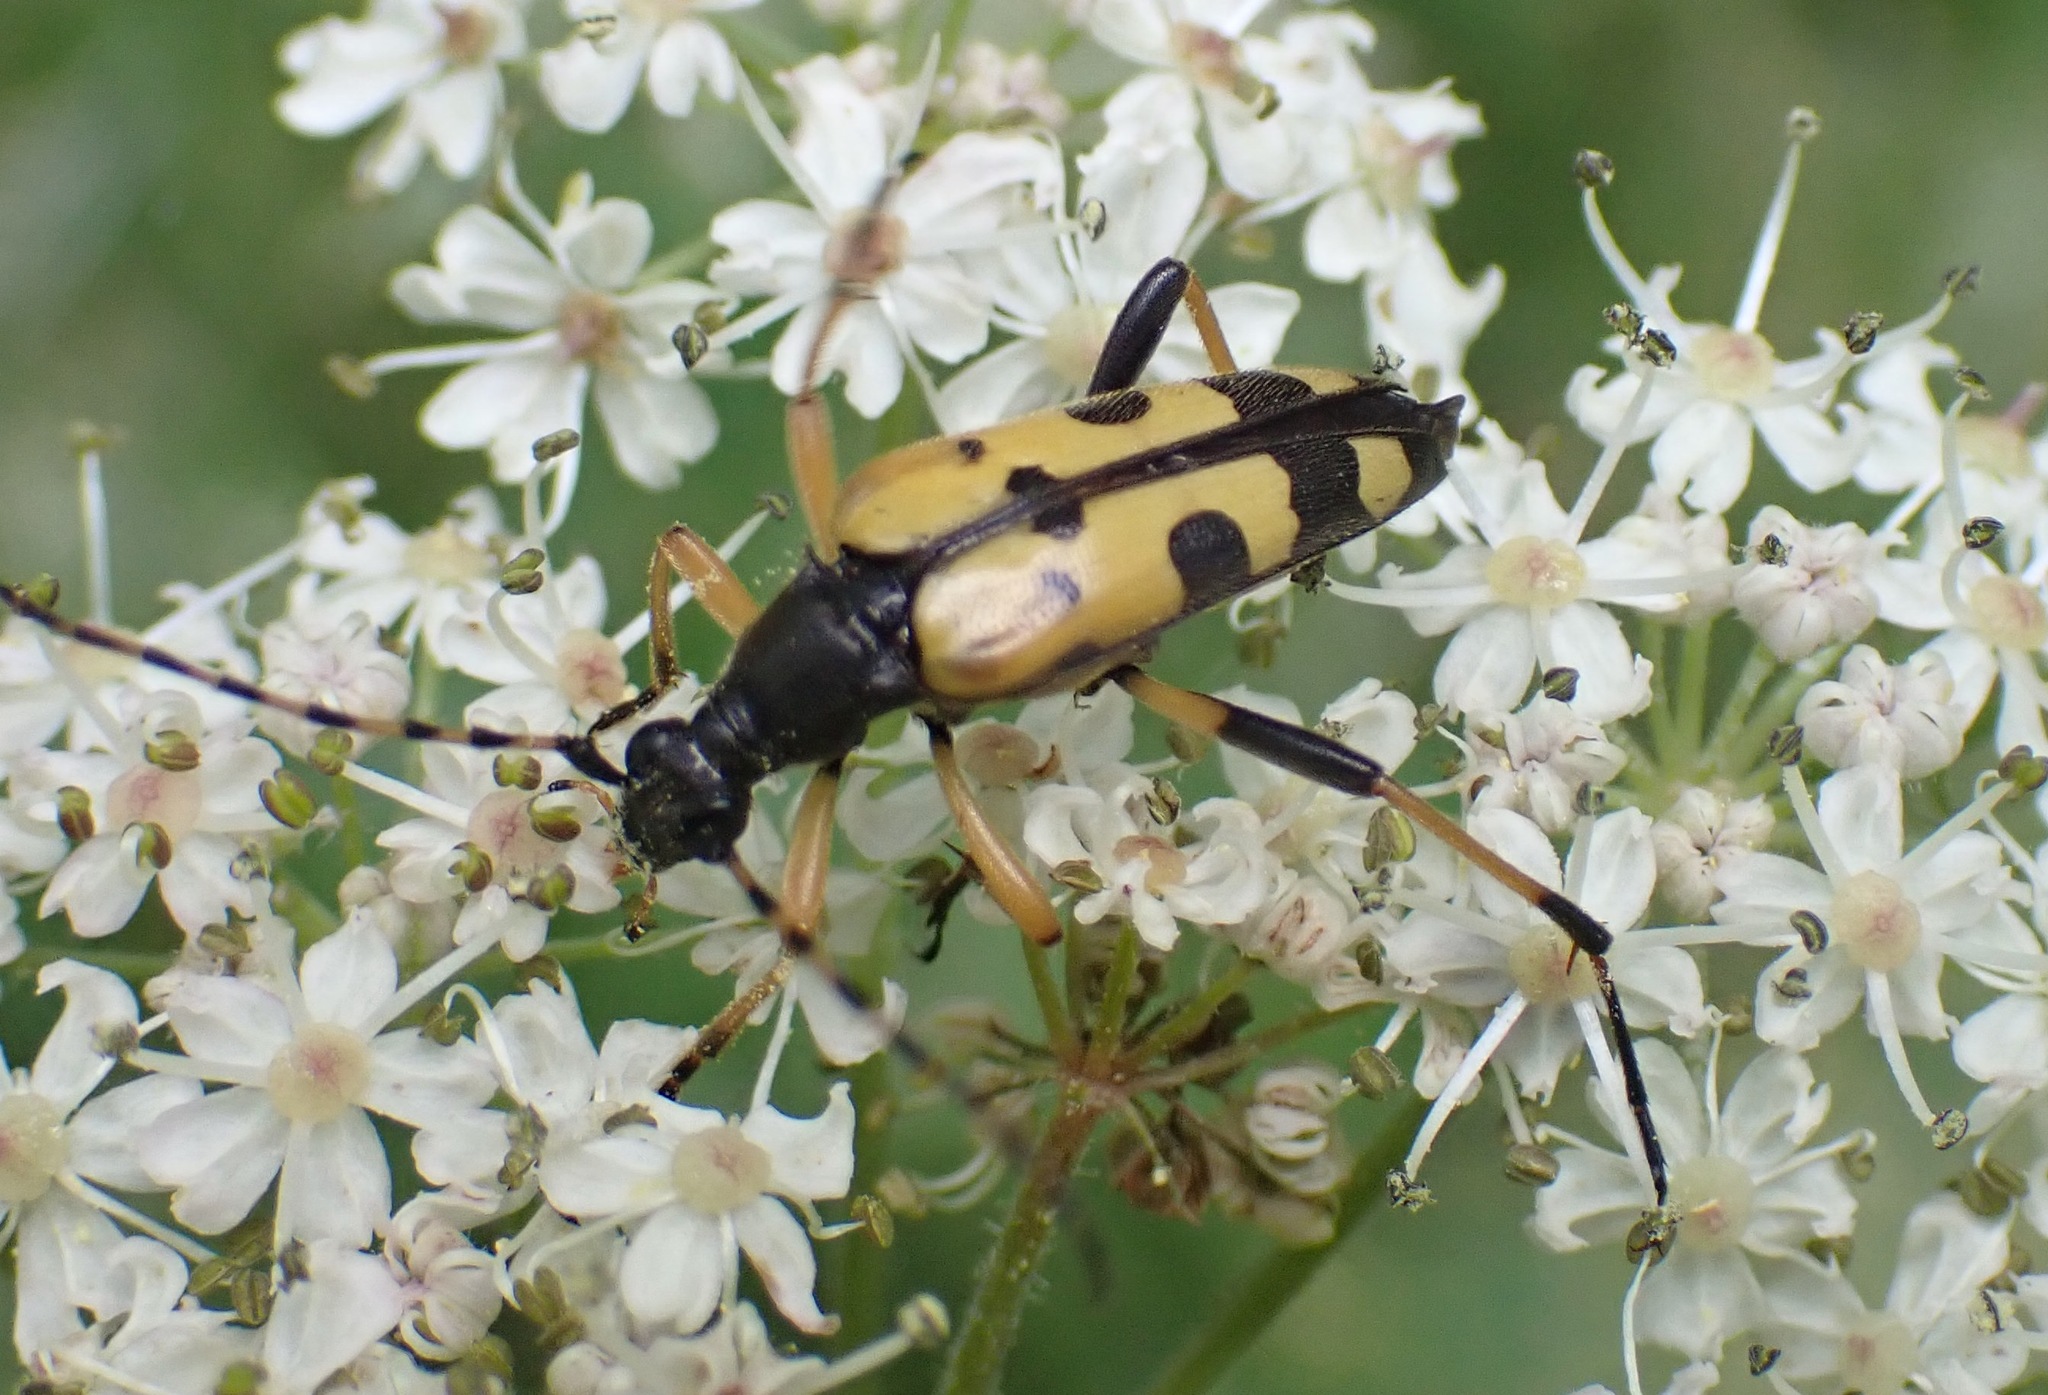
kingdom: Animalia
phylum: Arthropoda
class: Insecta
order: Coleoptera
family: Cerambycidae
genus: Rutpela
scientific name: Rutpela maculata
